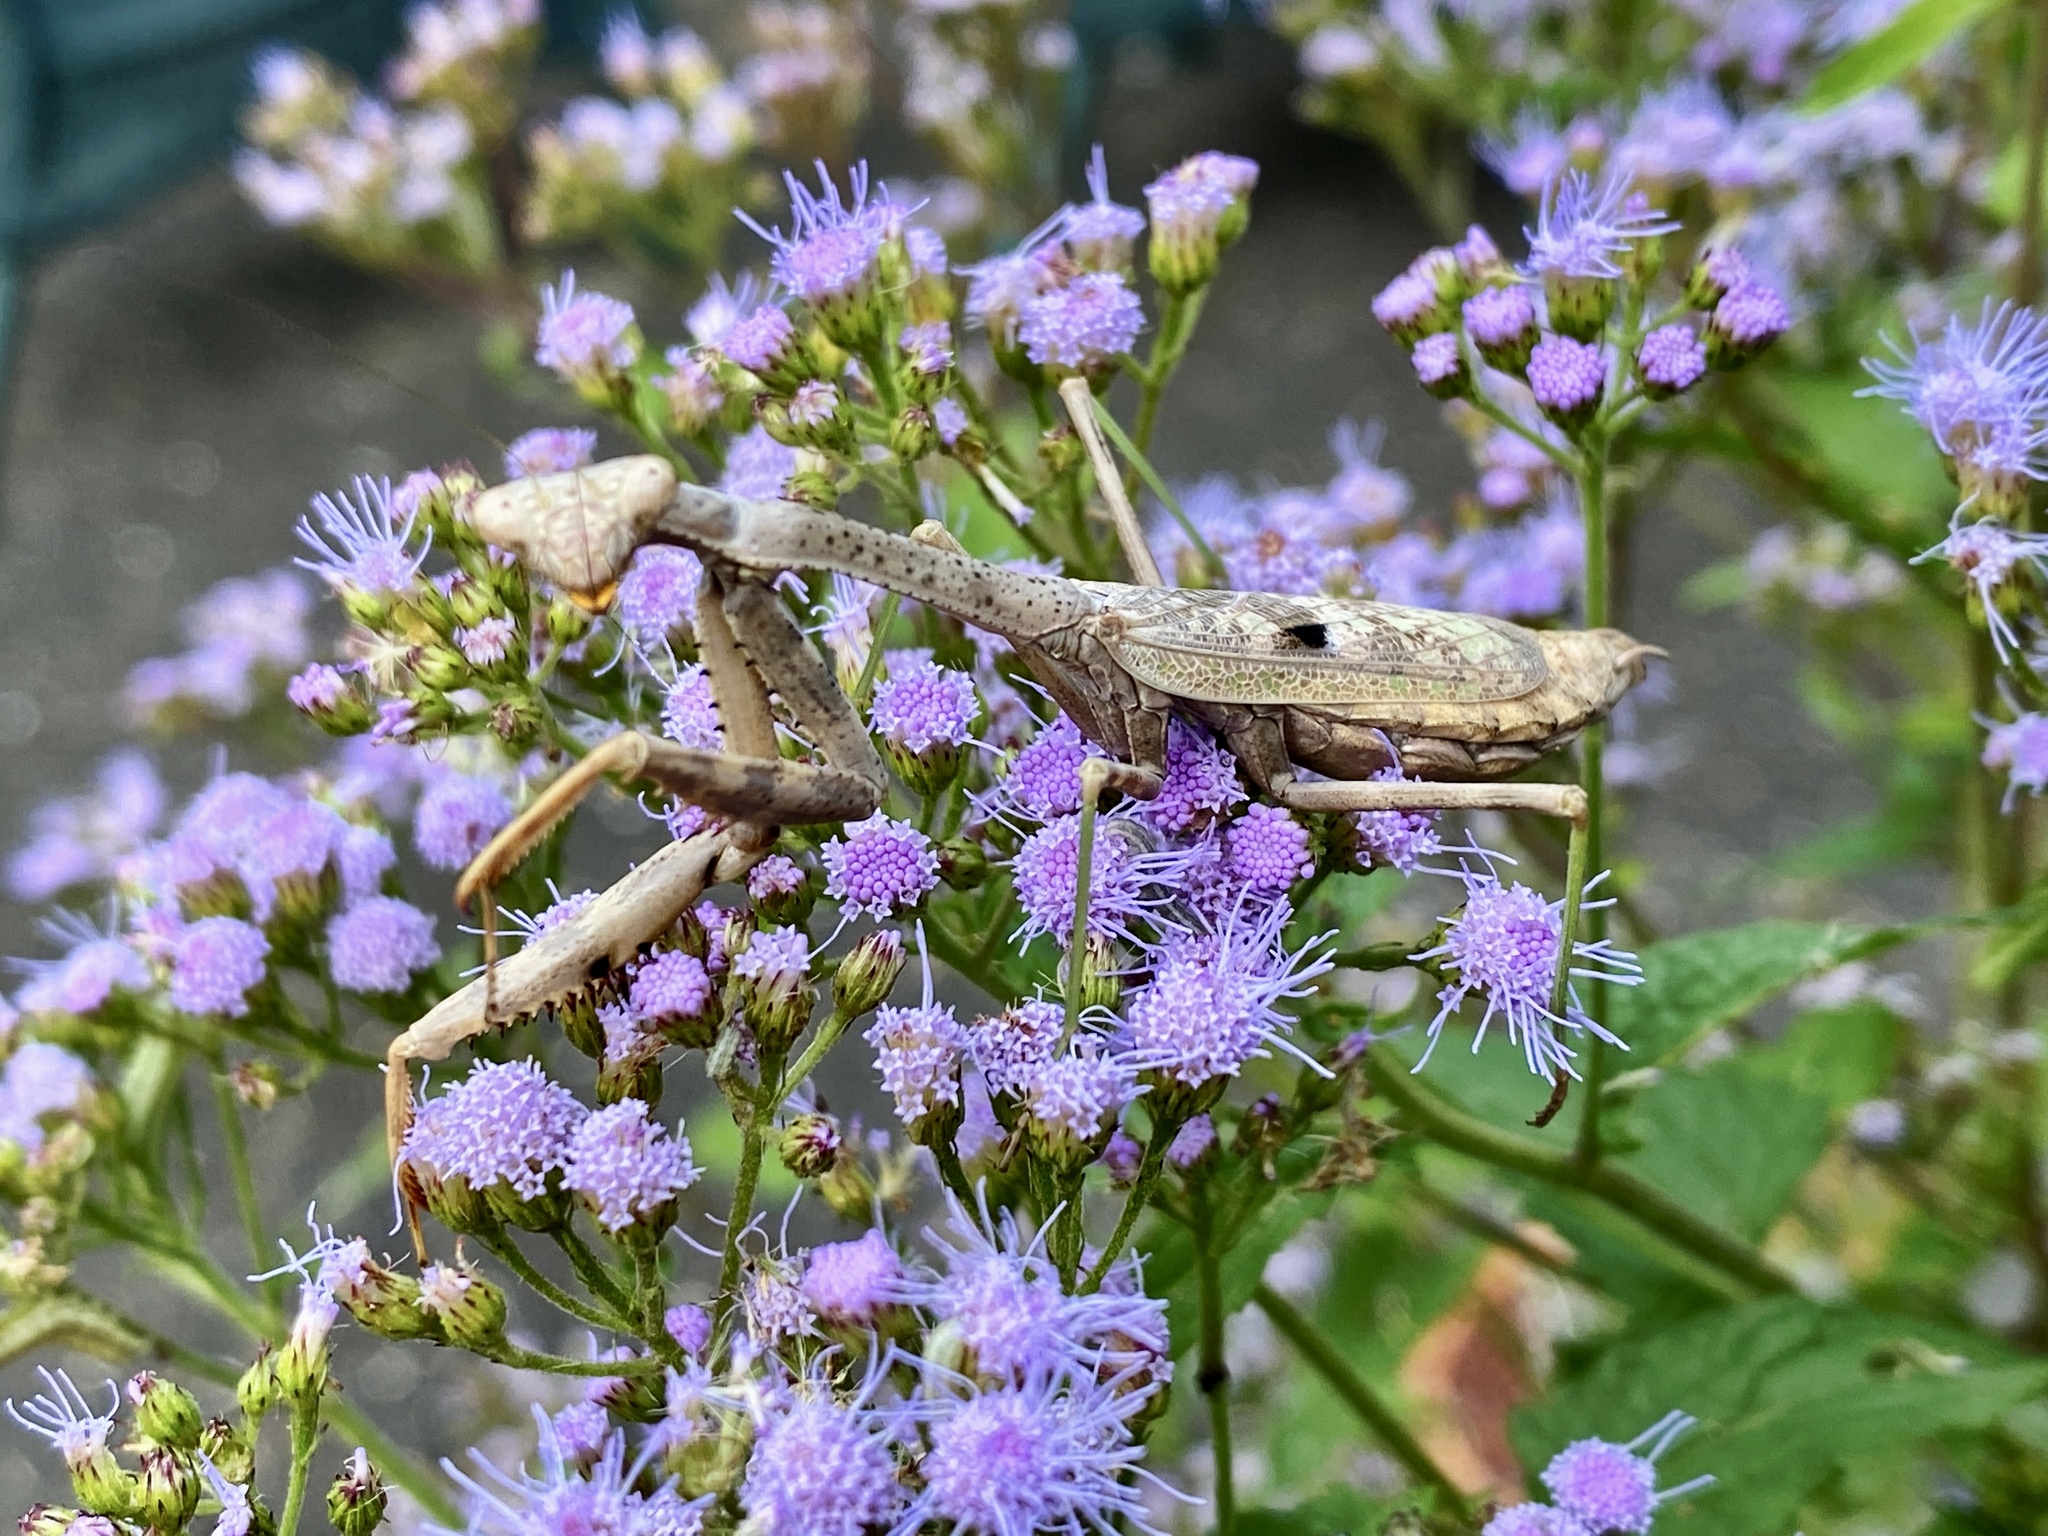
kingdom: Animalia
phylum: Arthropoda
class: Insecta
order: Mantodea
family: Mantidae
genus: Stagmomantis
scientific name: Stagmomantis carolina
